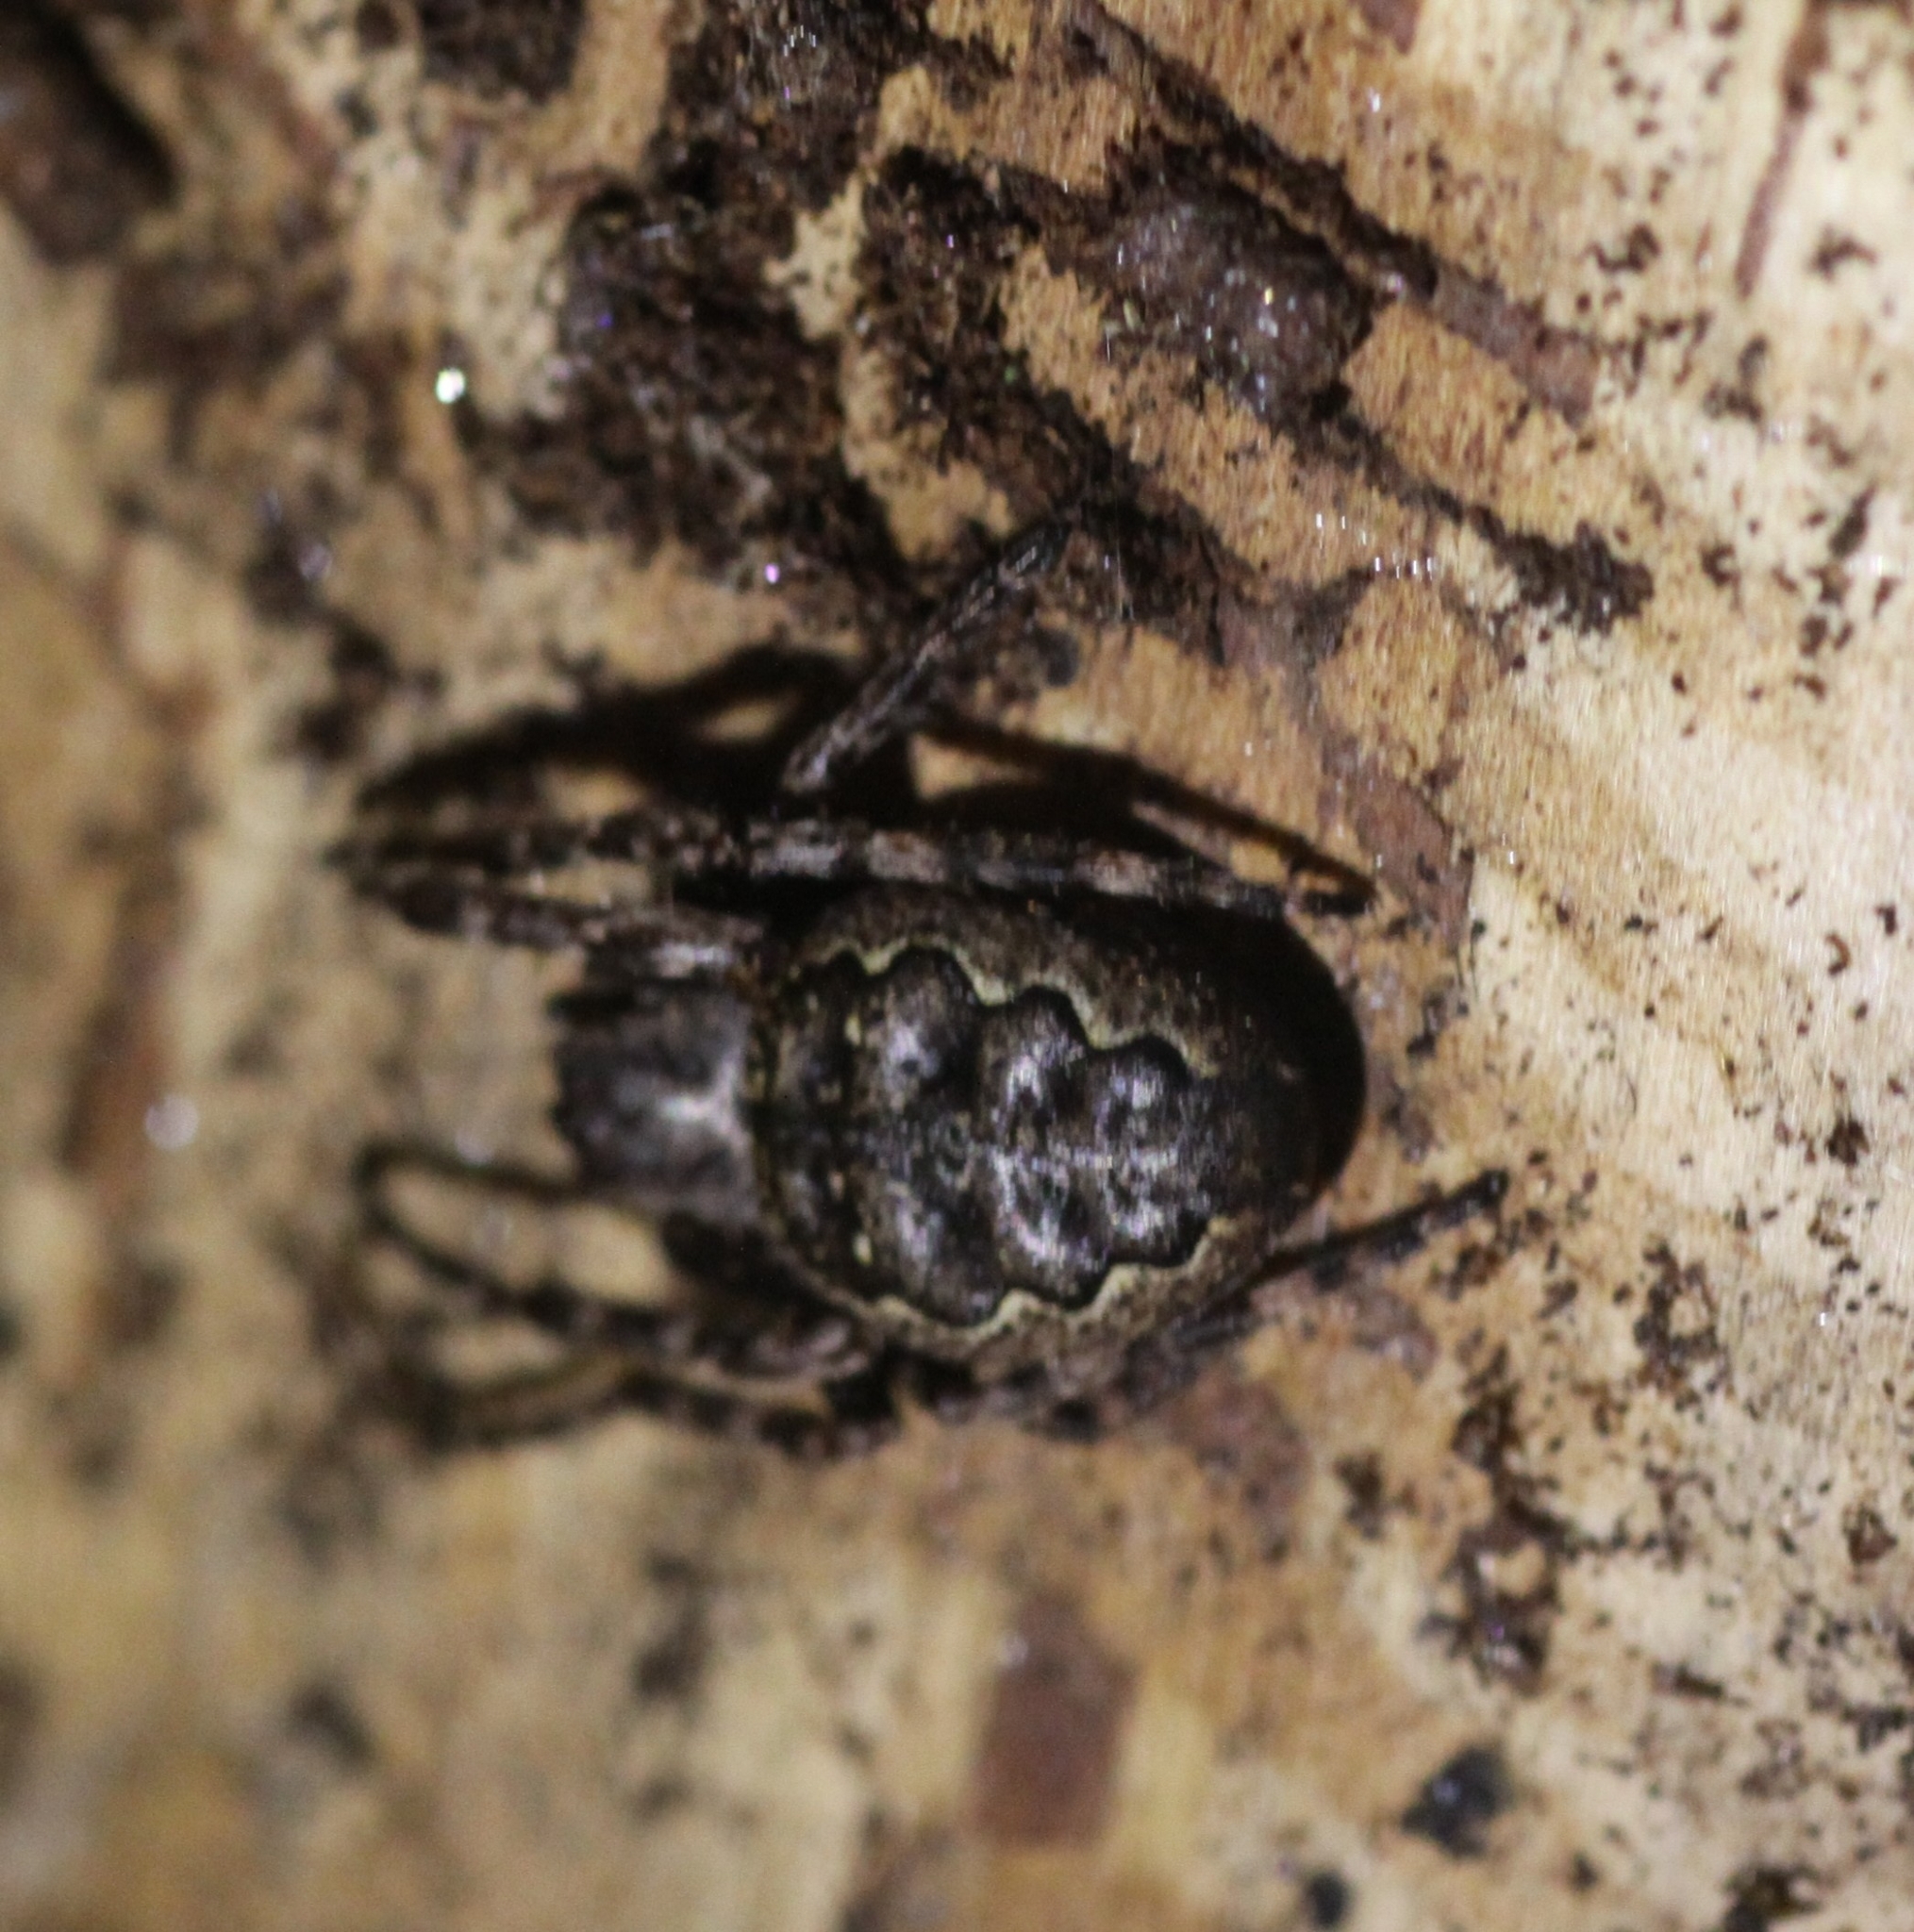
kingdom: Animalia
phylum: Arthropoda
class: Arachnida
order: Araneae
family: Araneidae
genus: Nuctenea
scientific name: Nuctenea umbratica
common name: Toad spider
